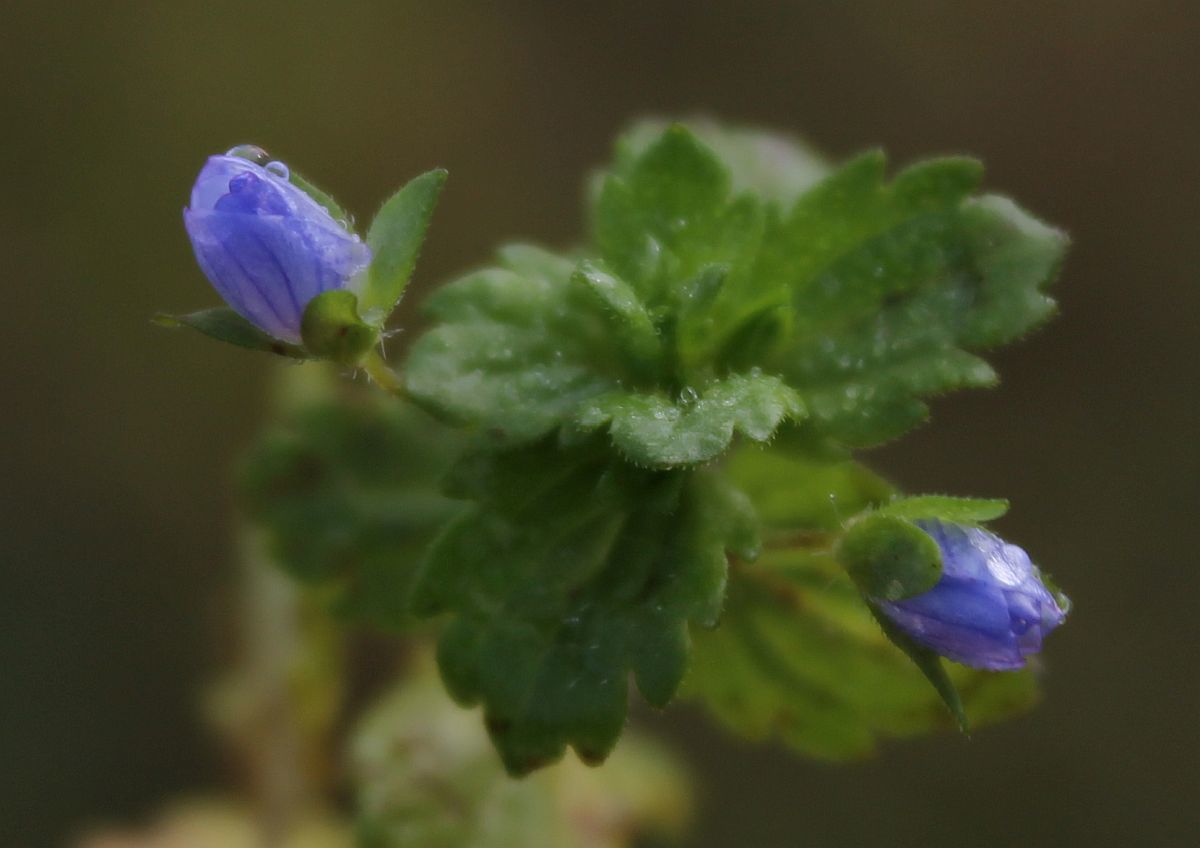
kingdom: Plantae
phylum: Tracheophyta
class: Magnoliopsida
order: Lamiales
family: Plantaginaceae
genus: Veronica
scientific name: Veronica persica
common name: Common field-speedwell
